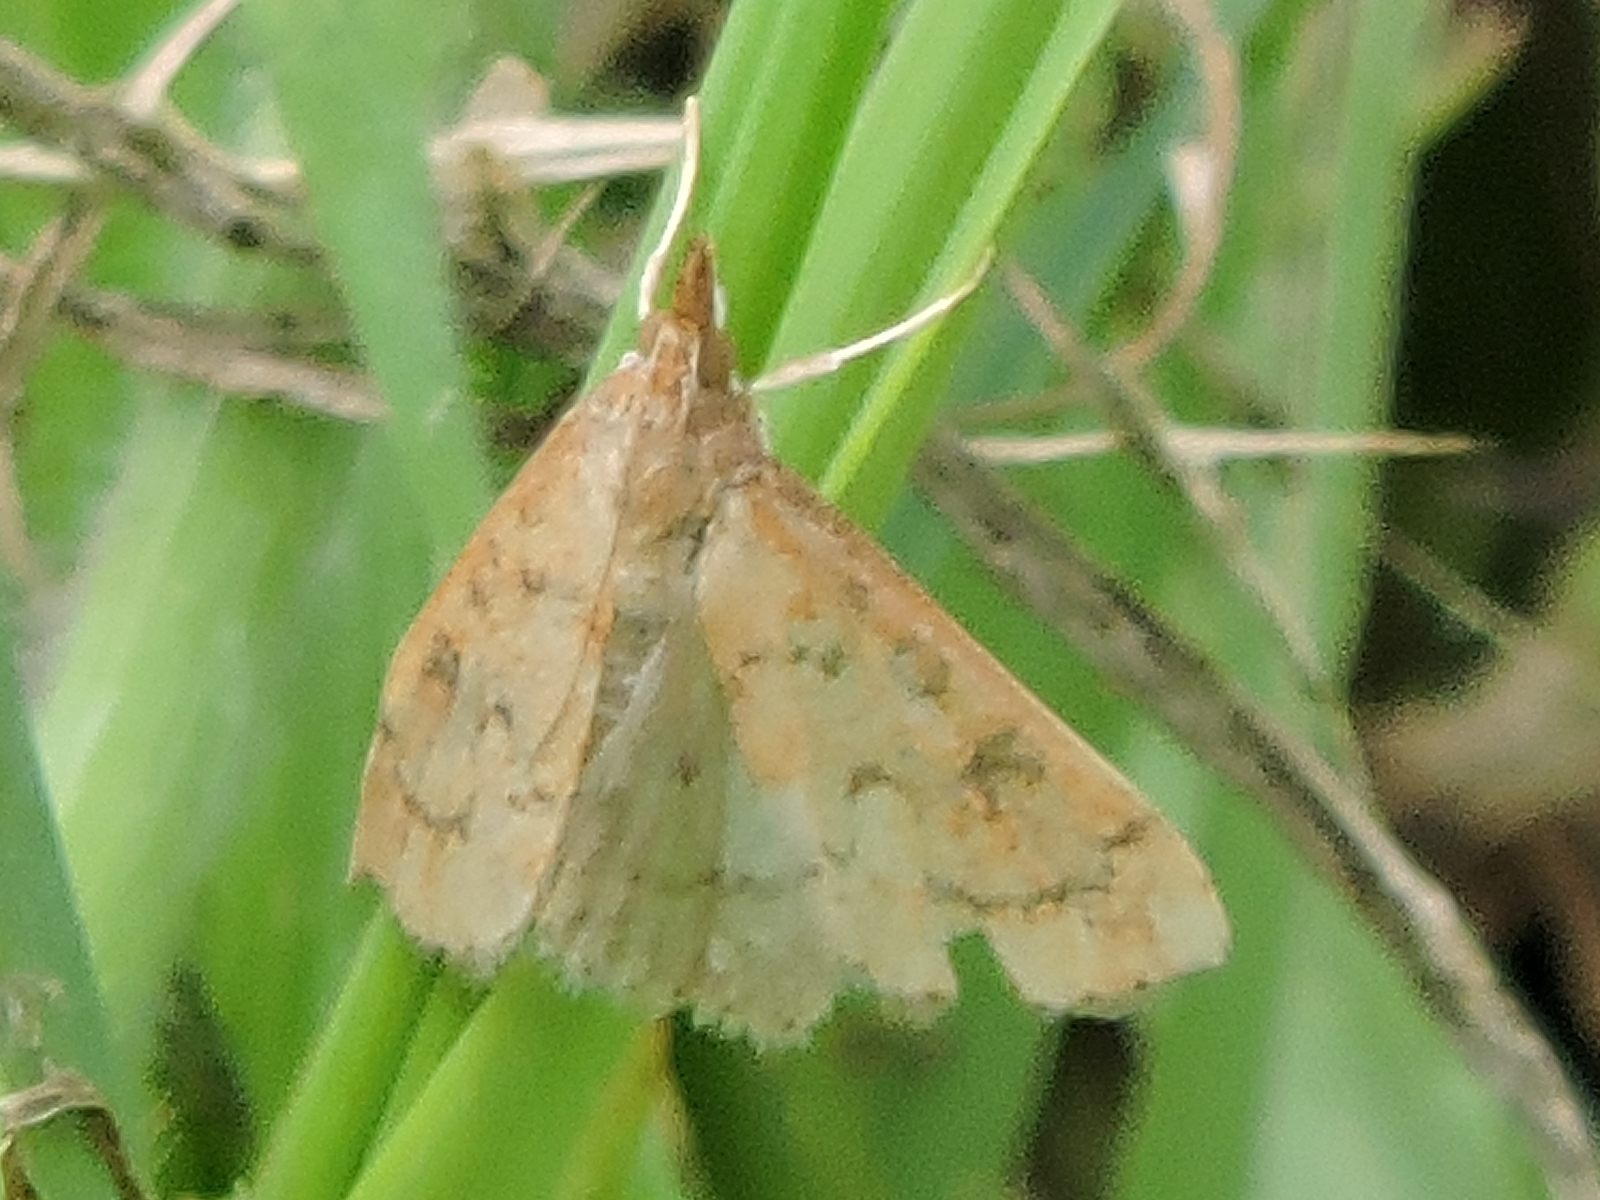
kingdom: Animalia
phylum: Arthropoda
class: Insecta
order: Lepidoptera
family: Crambidae
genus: Udea
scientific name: Udea rubigalis
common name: Celery leaftier moth
